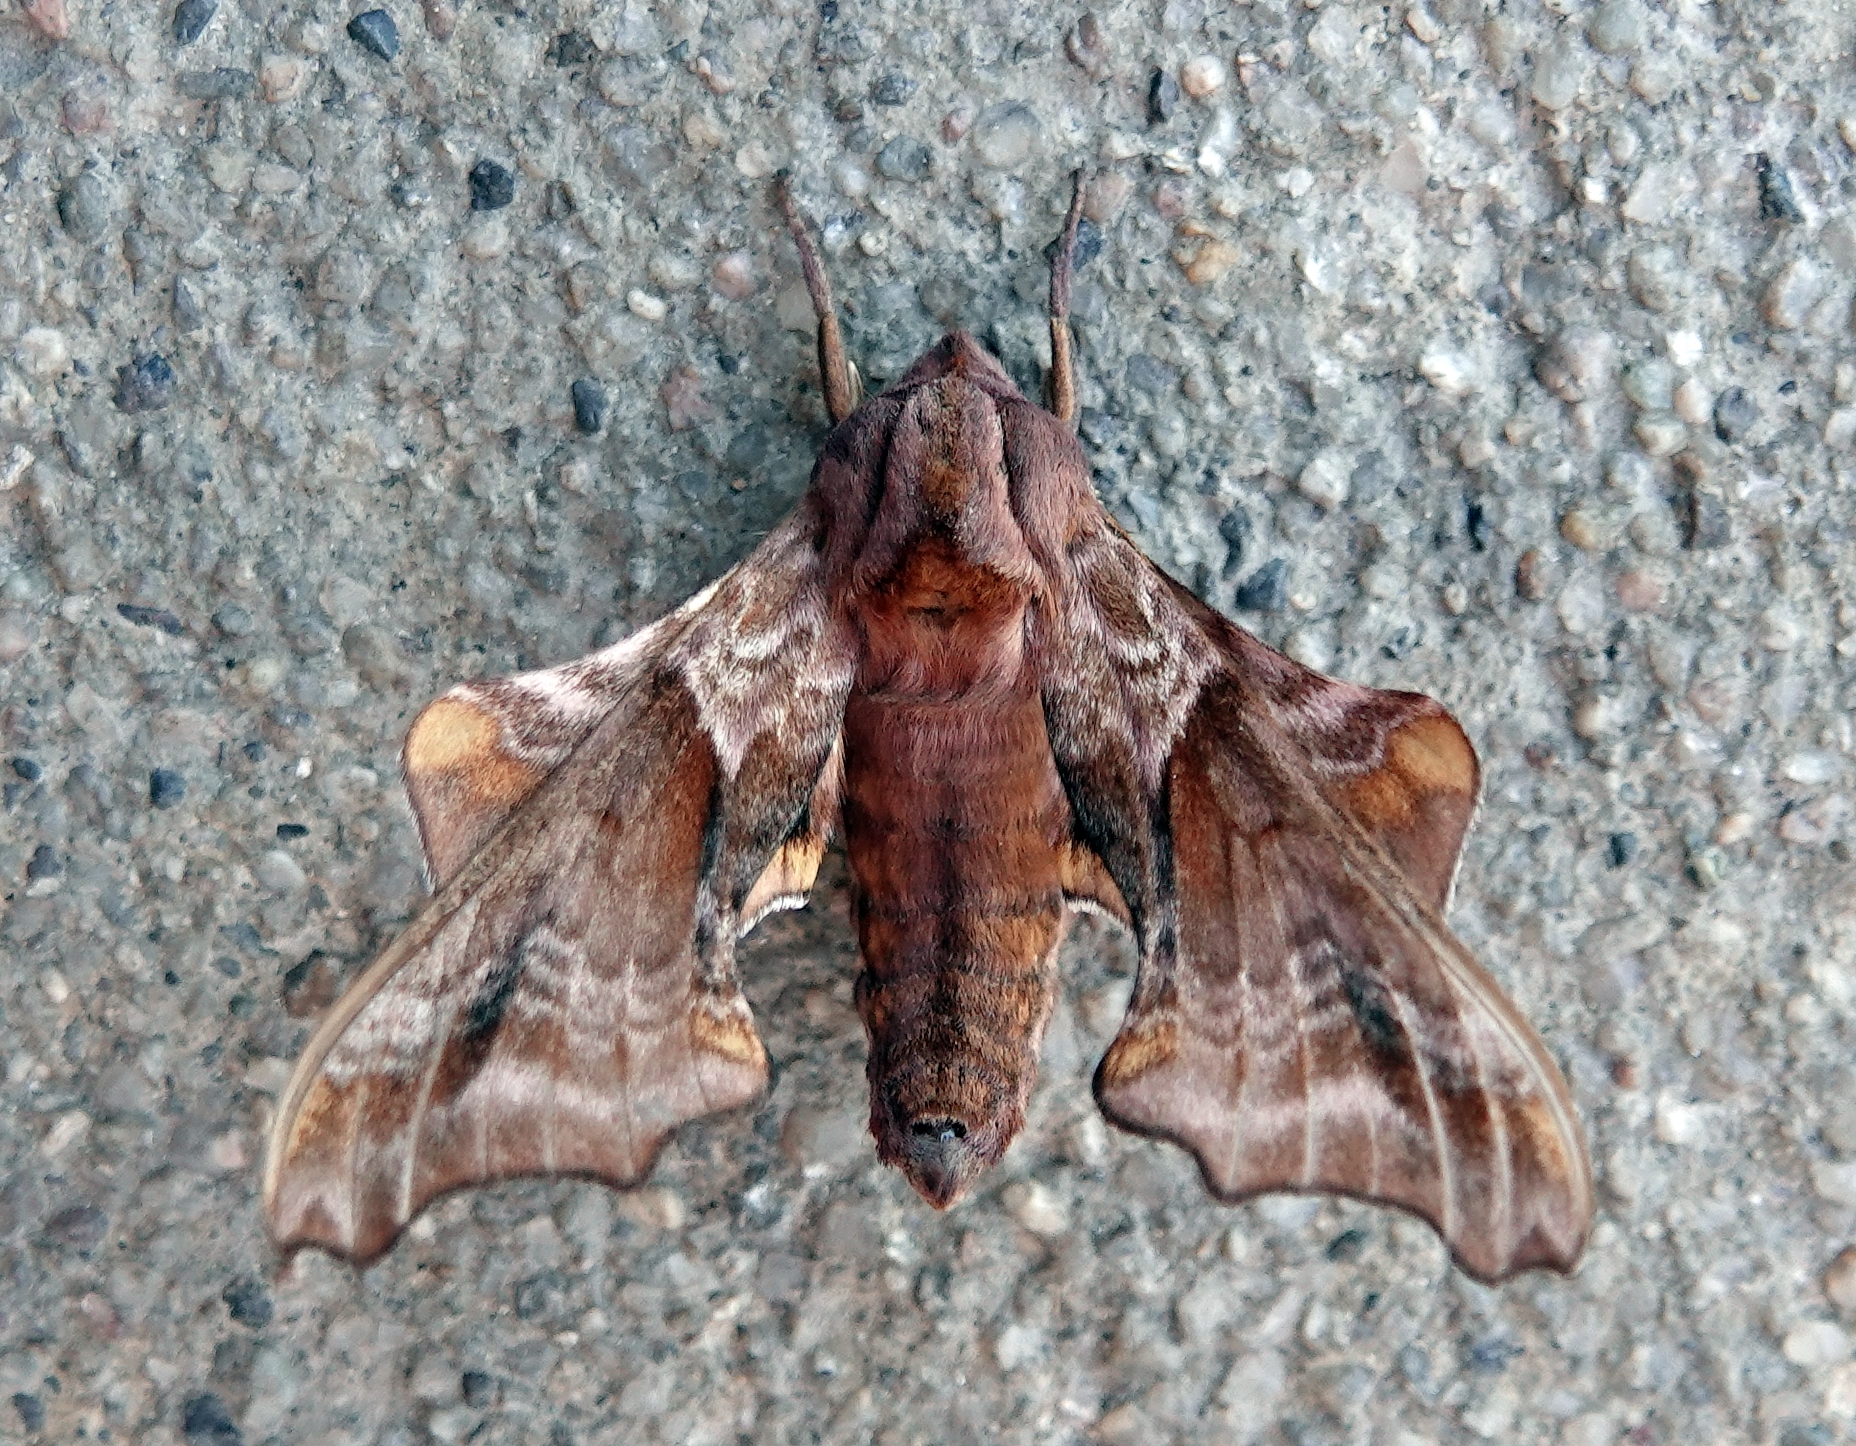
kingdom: Animalia
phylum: Arthropoda
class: Insecta
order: Lepidoptera
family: Sphingidae
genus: Paonias
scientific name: Paonias myops
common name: Small-eyed sphinx
